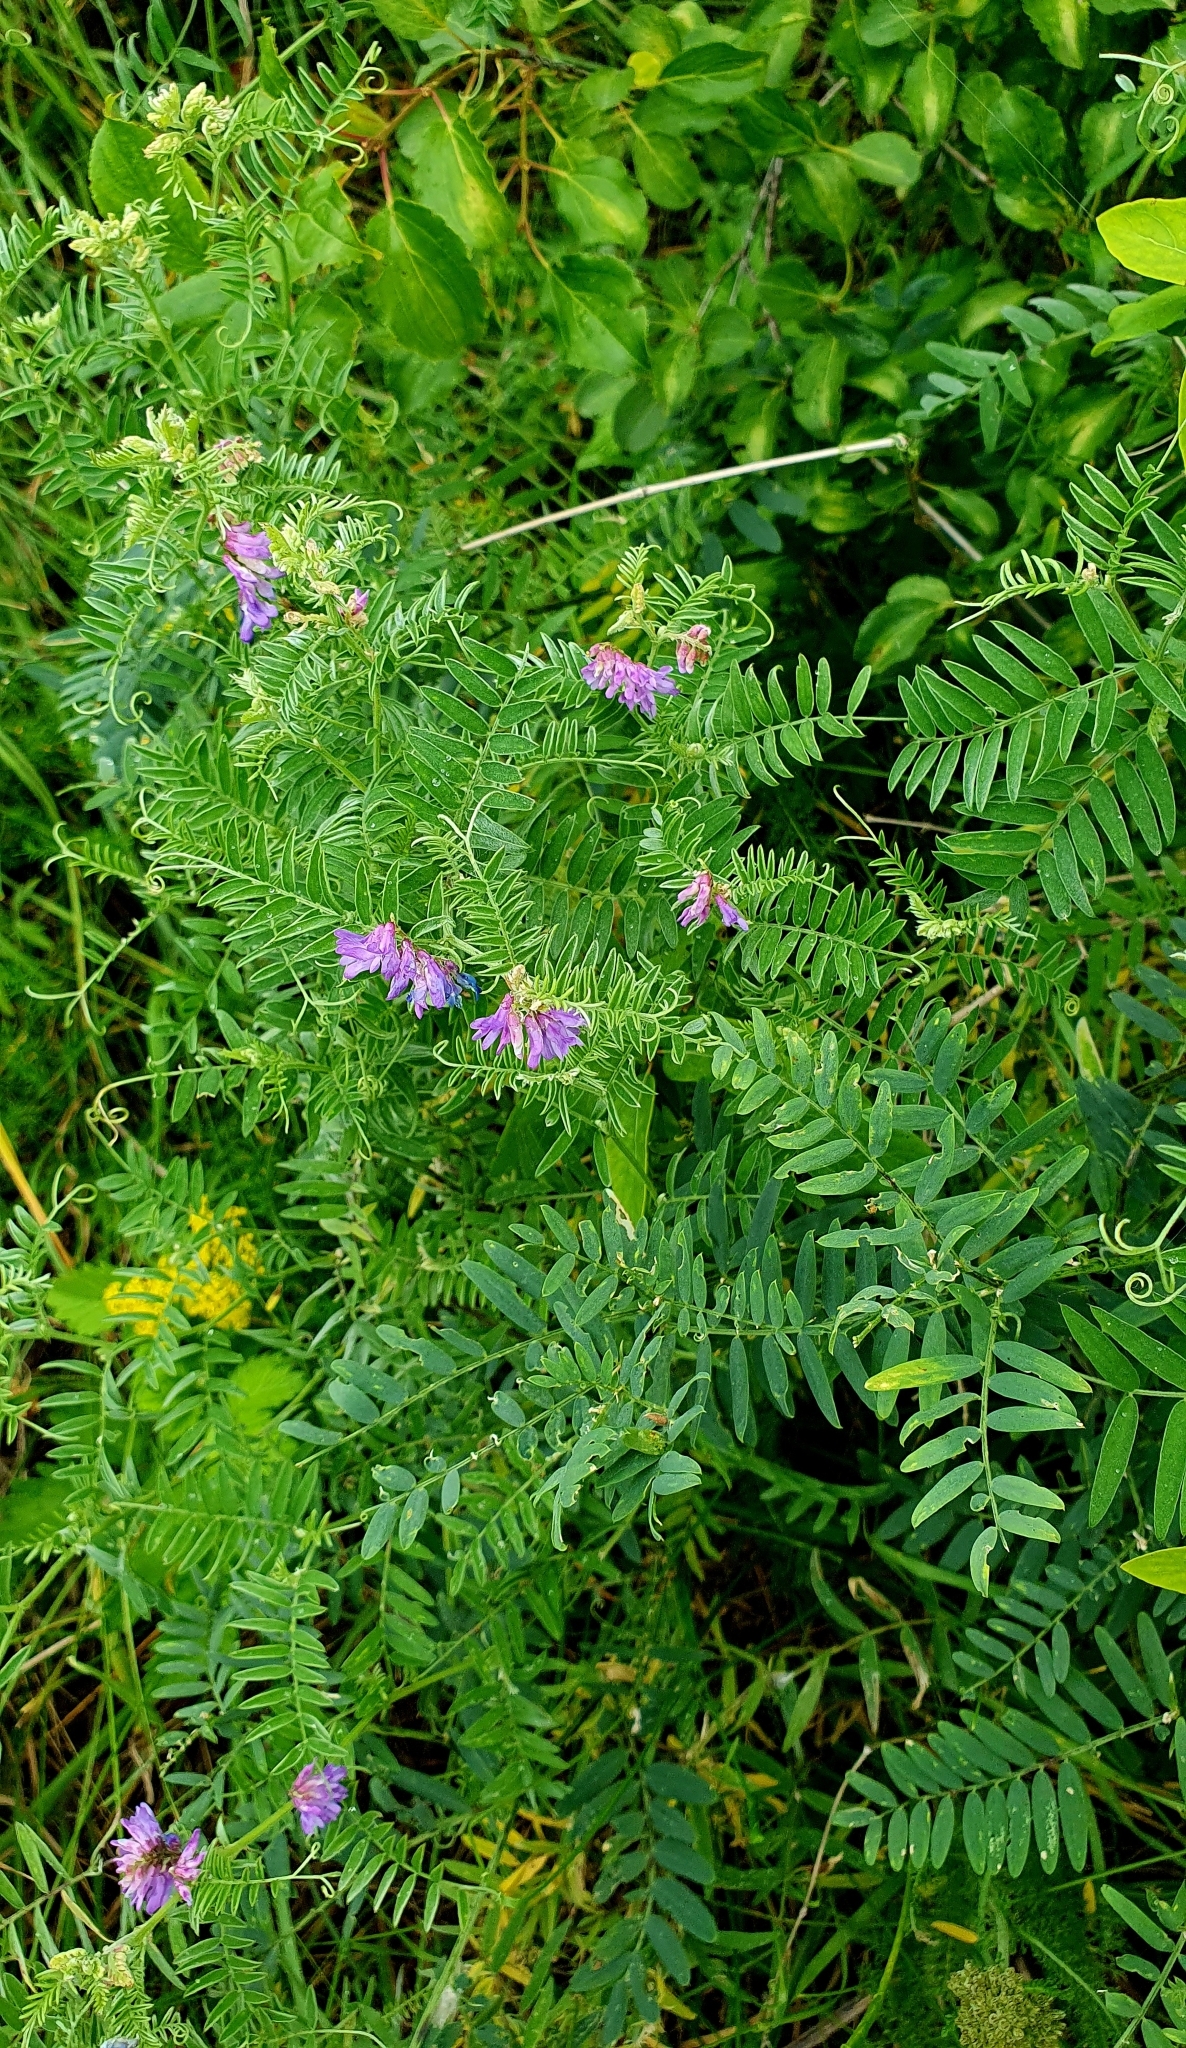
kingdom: Plantae
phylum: Tracheophyta
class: Magnoliopsida
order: Fabales
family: Fabaceae
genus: Vicia
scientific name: Vicia cracca
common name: Bird vetch
